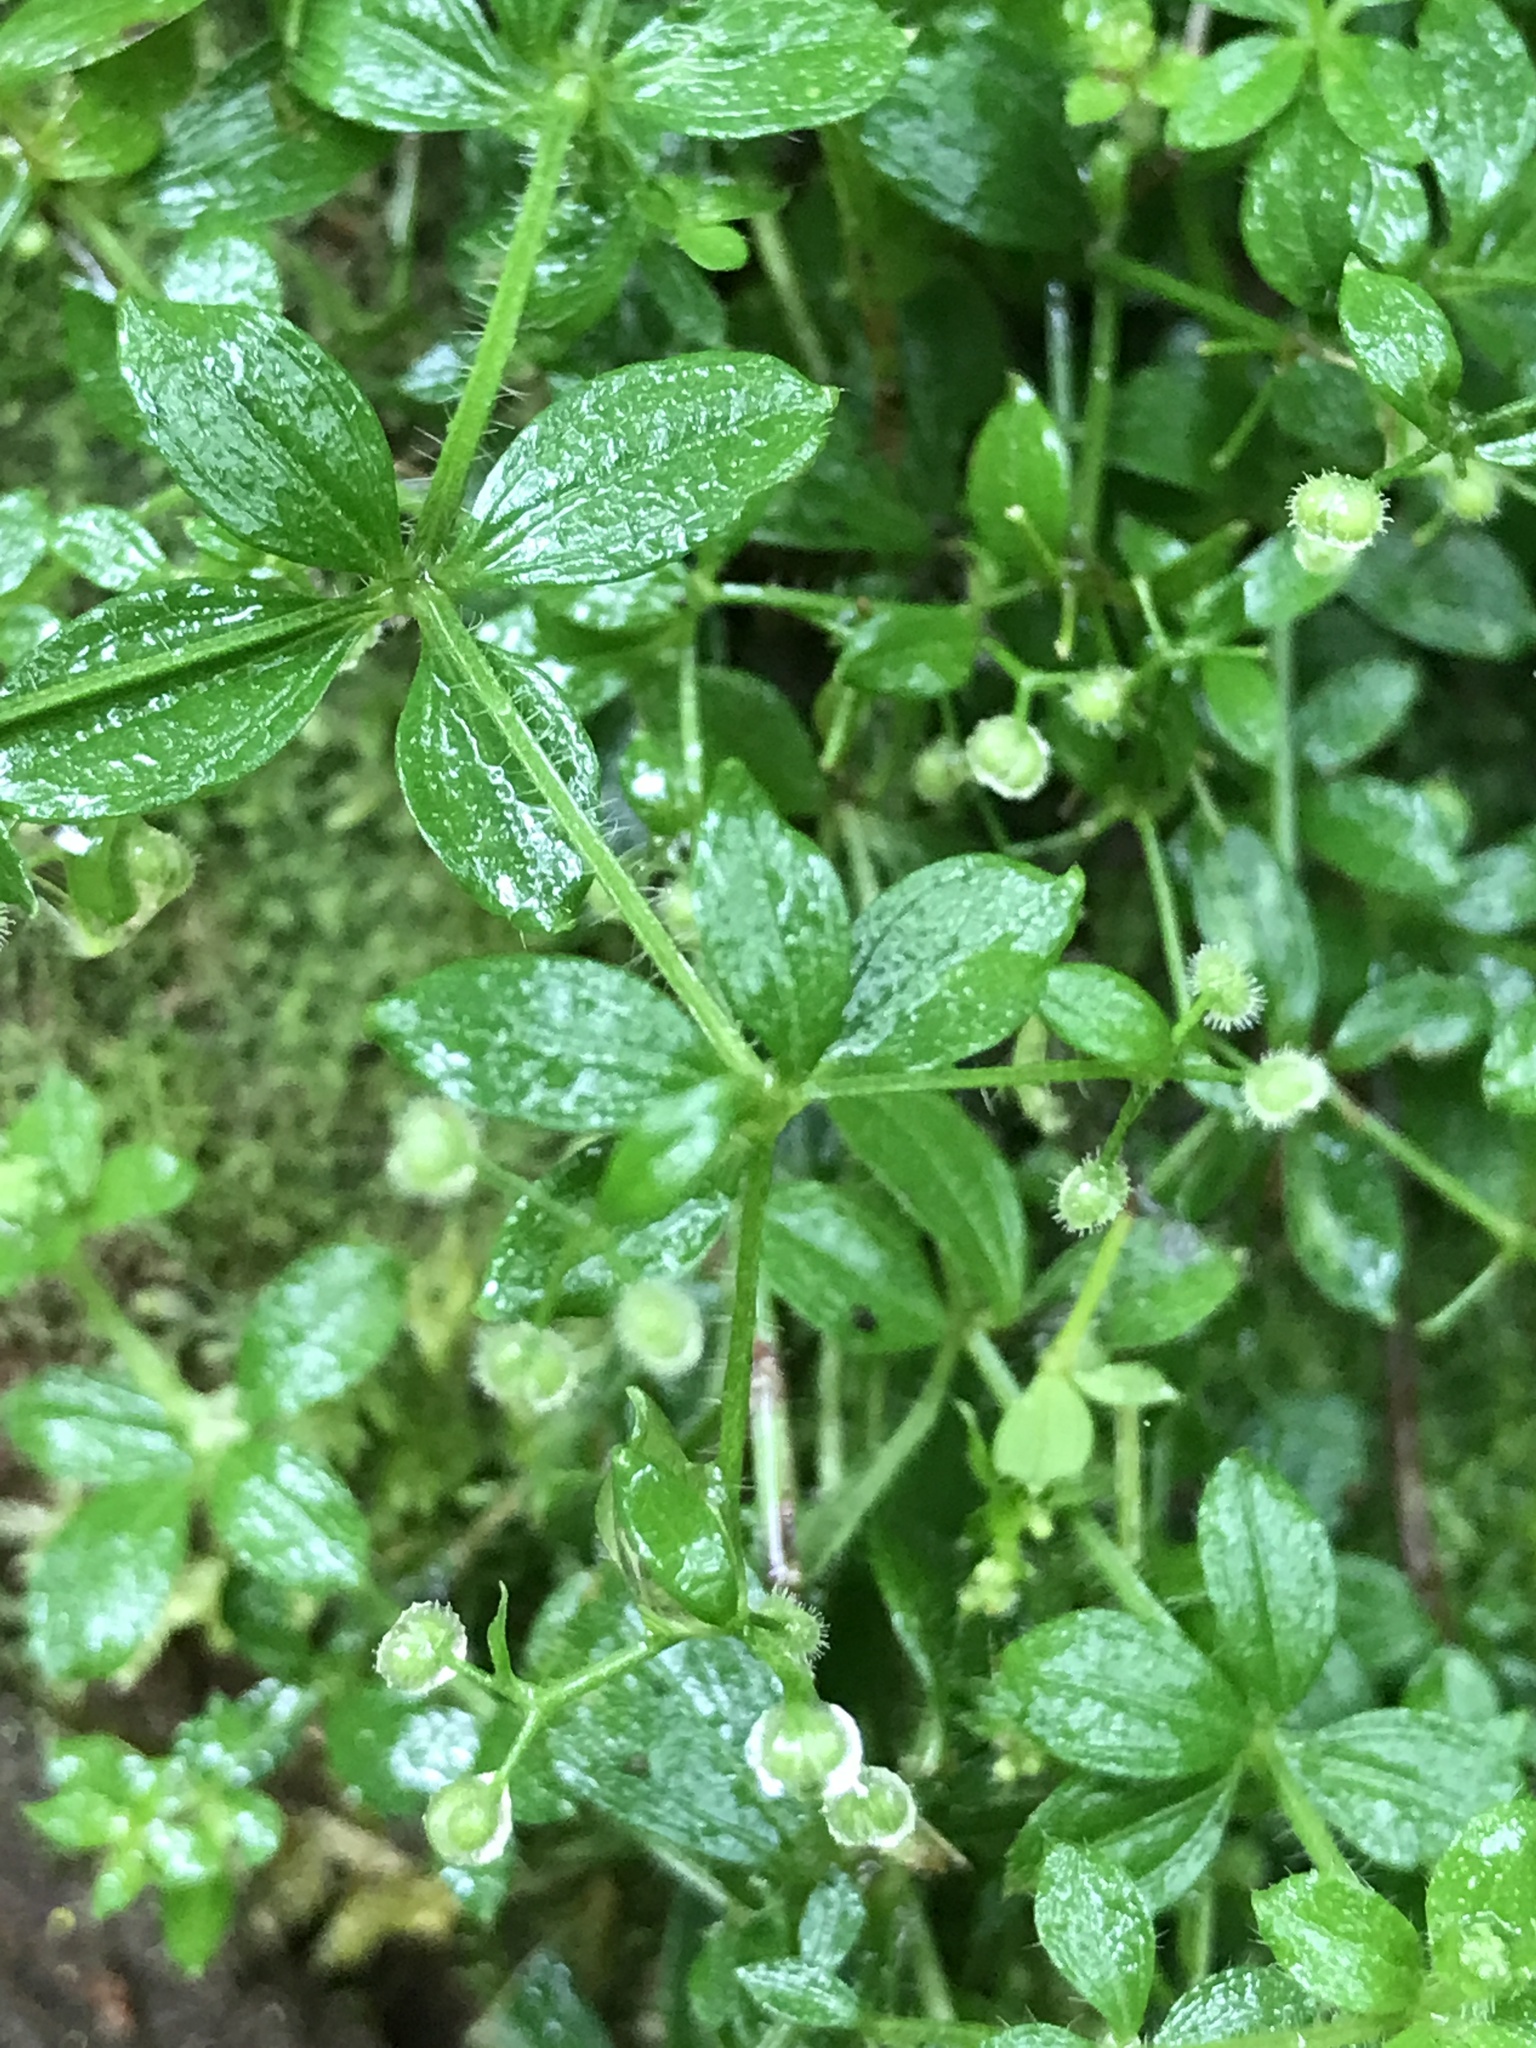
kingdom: Plantae
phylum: Tracheophyta
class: Magnoliopsida
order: Gentianales
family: Rubiaceae
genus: Galium
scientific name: Galium formosense
